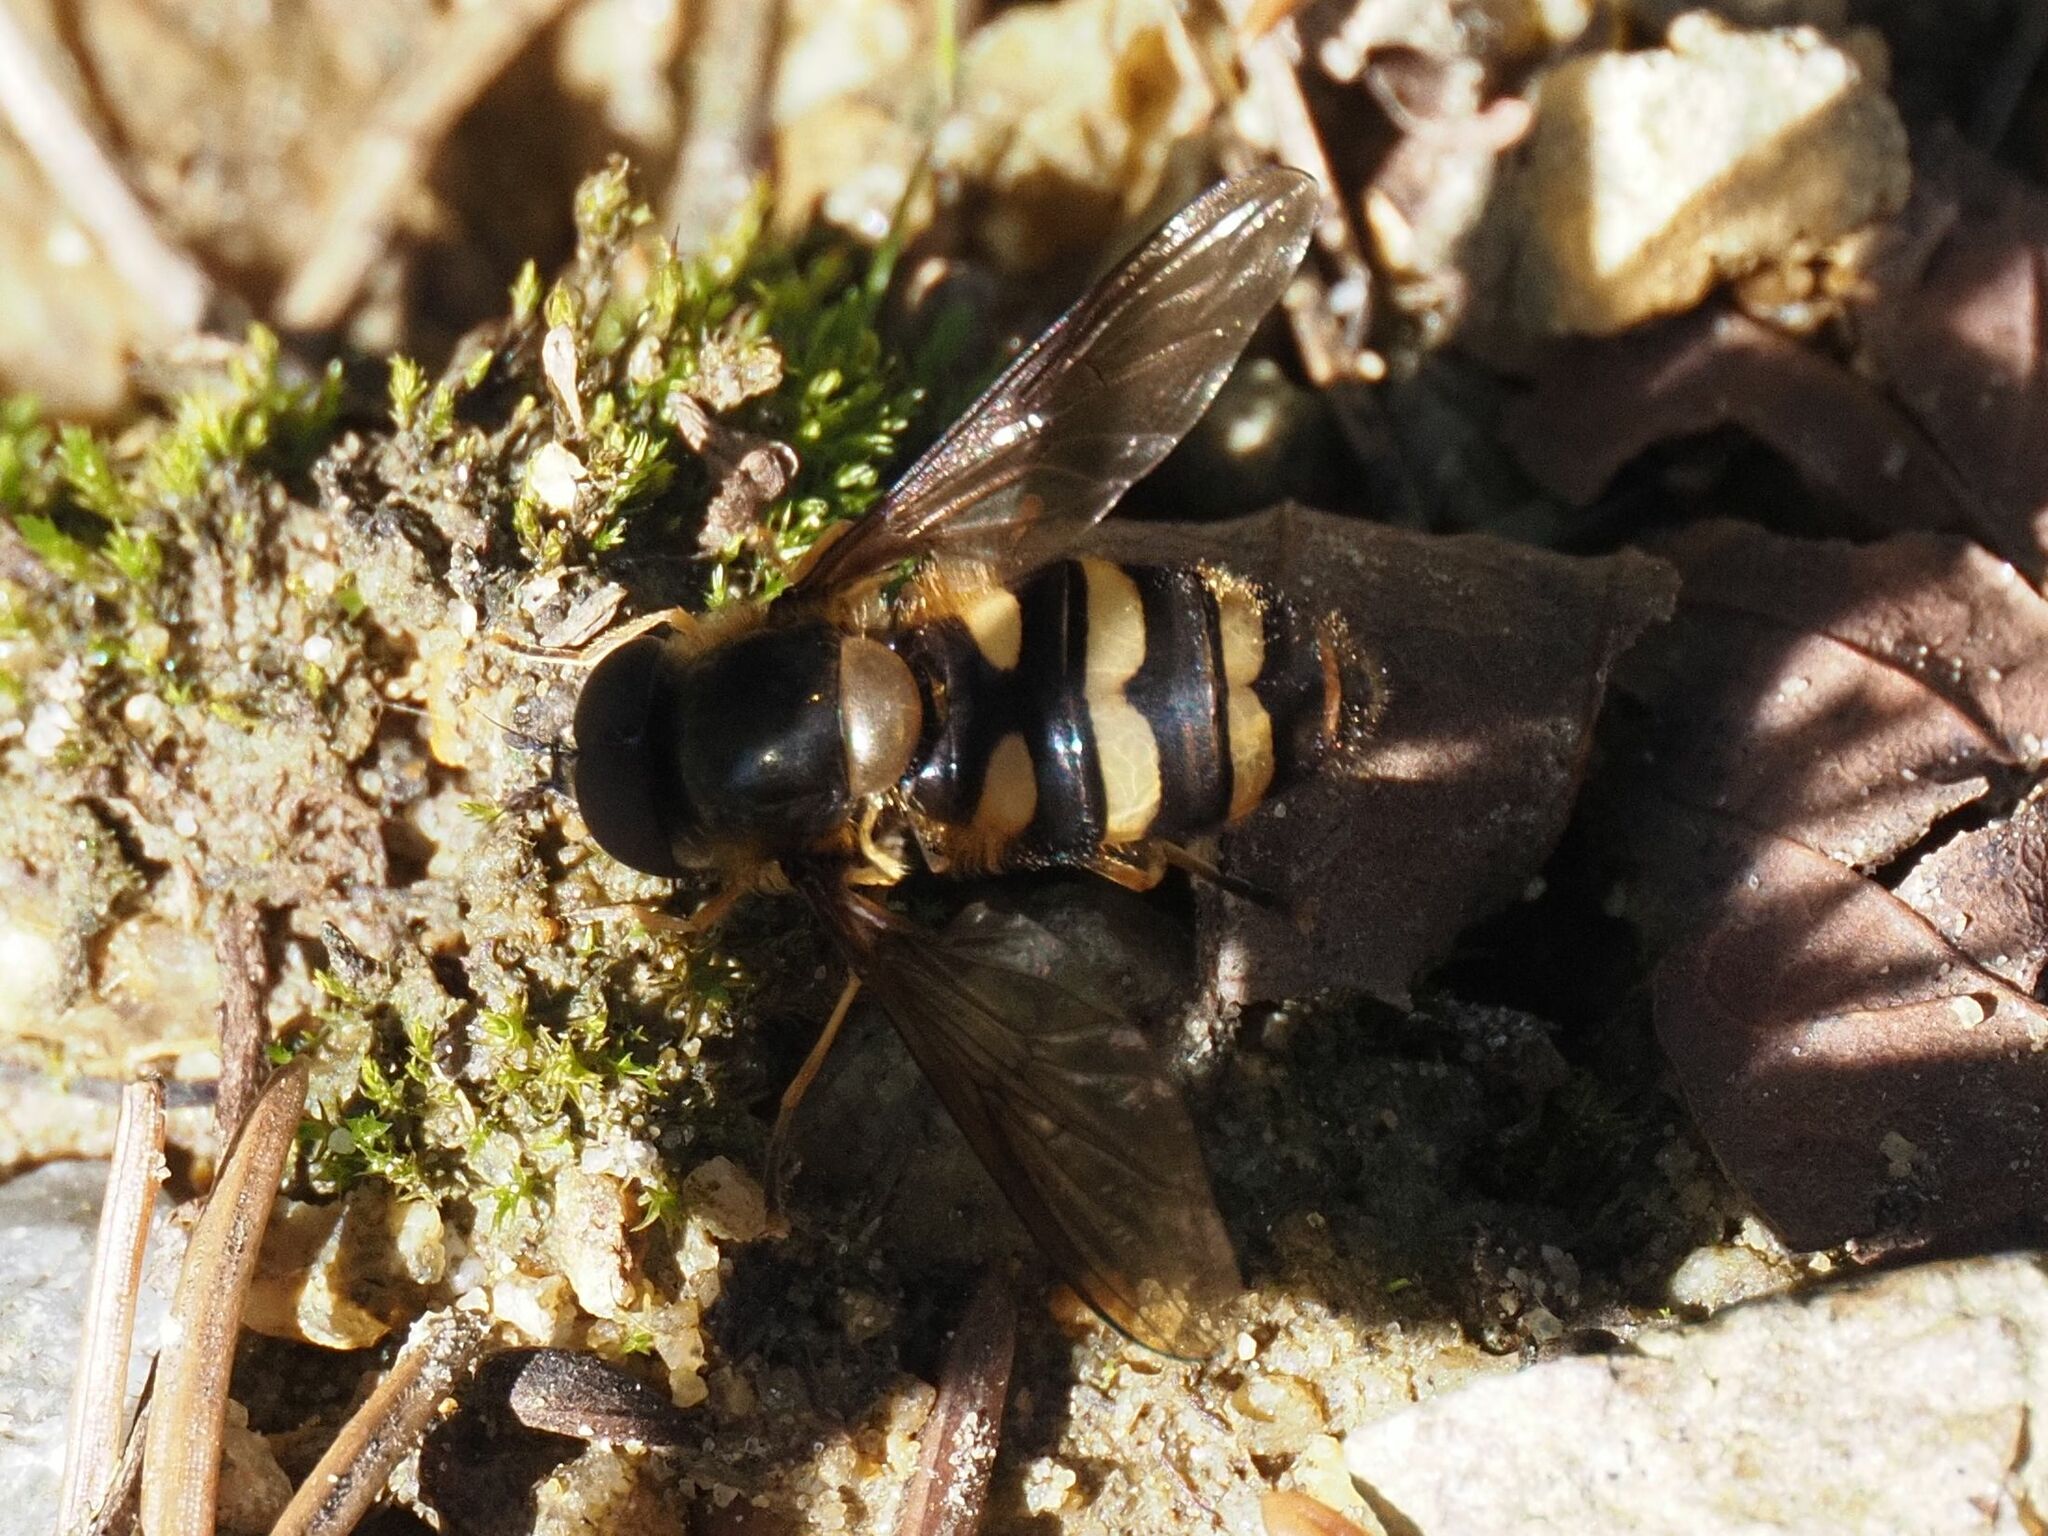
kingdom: Animalia
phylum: Arthropoda
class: Insecta
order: Diptera
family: Syrphidae
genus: Megasyrphus
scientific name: Megasyrphus erratica
